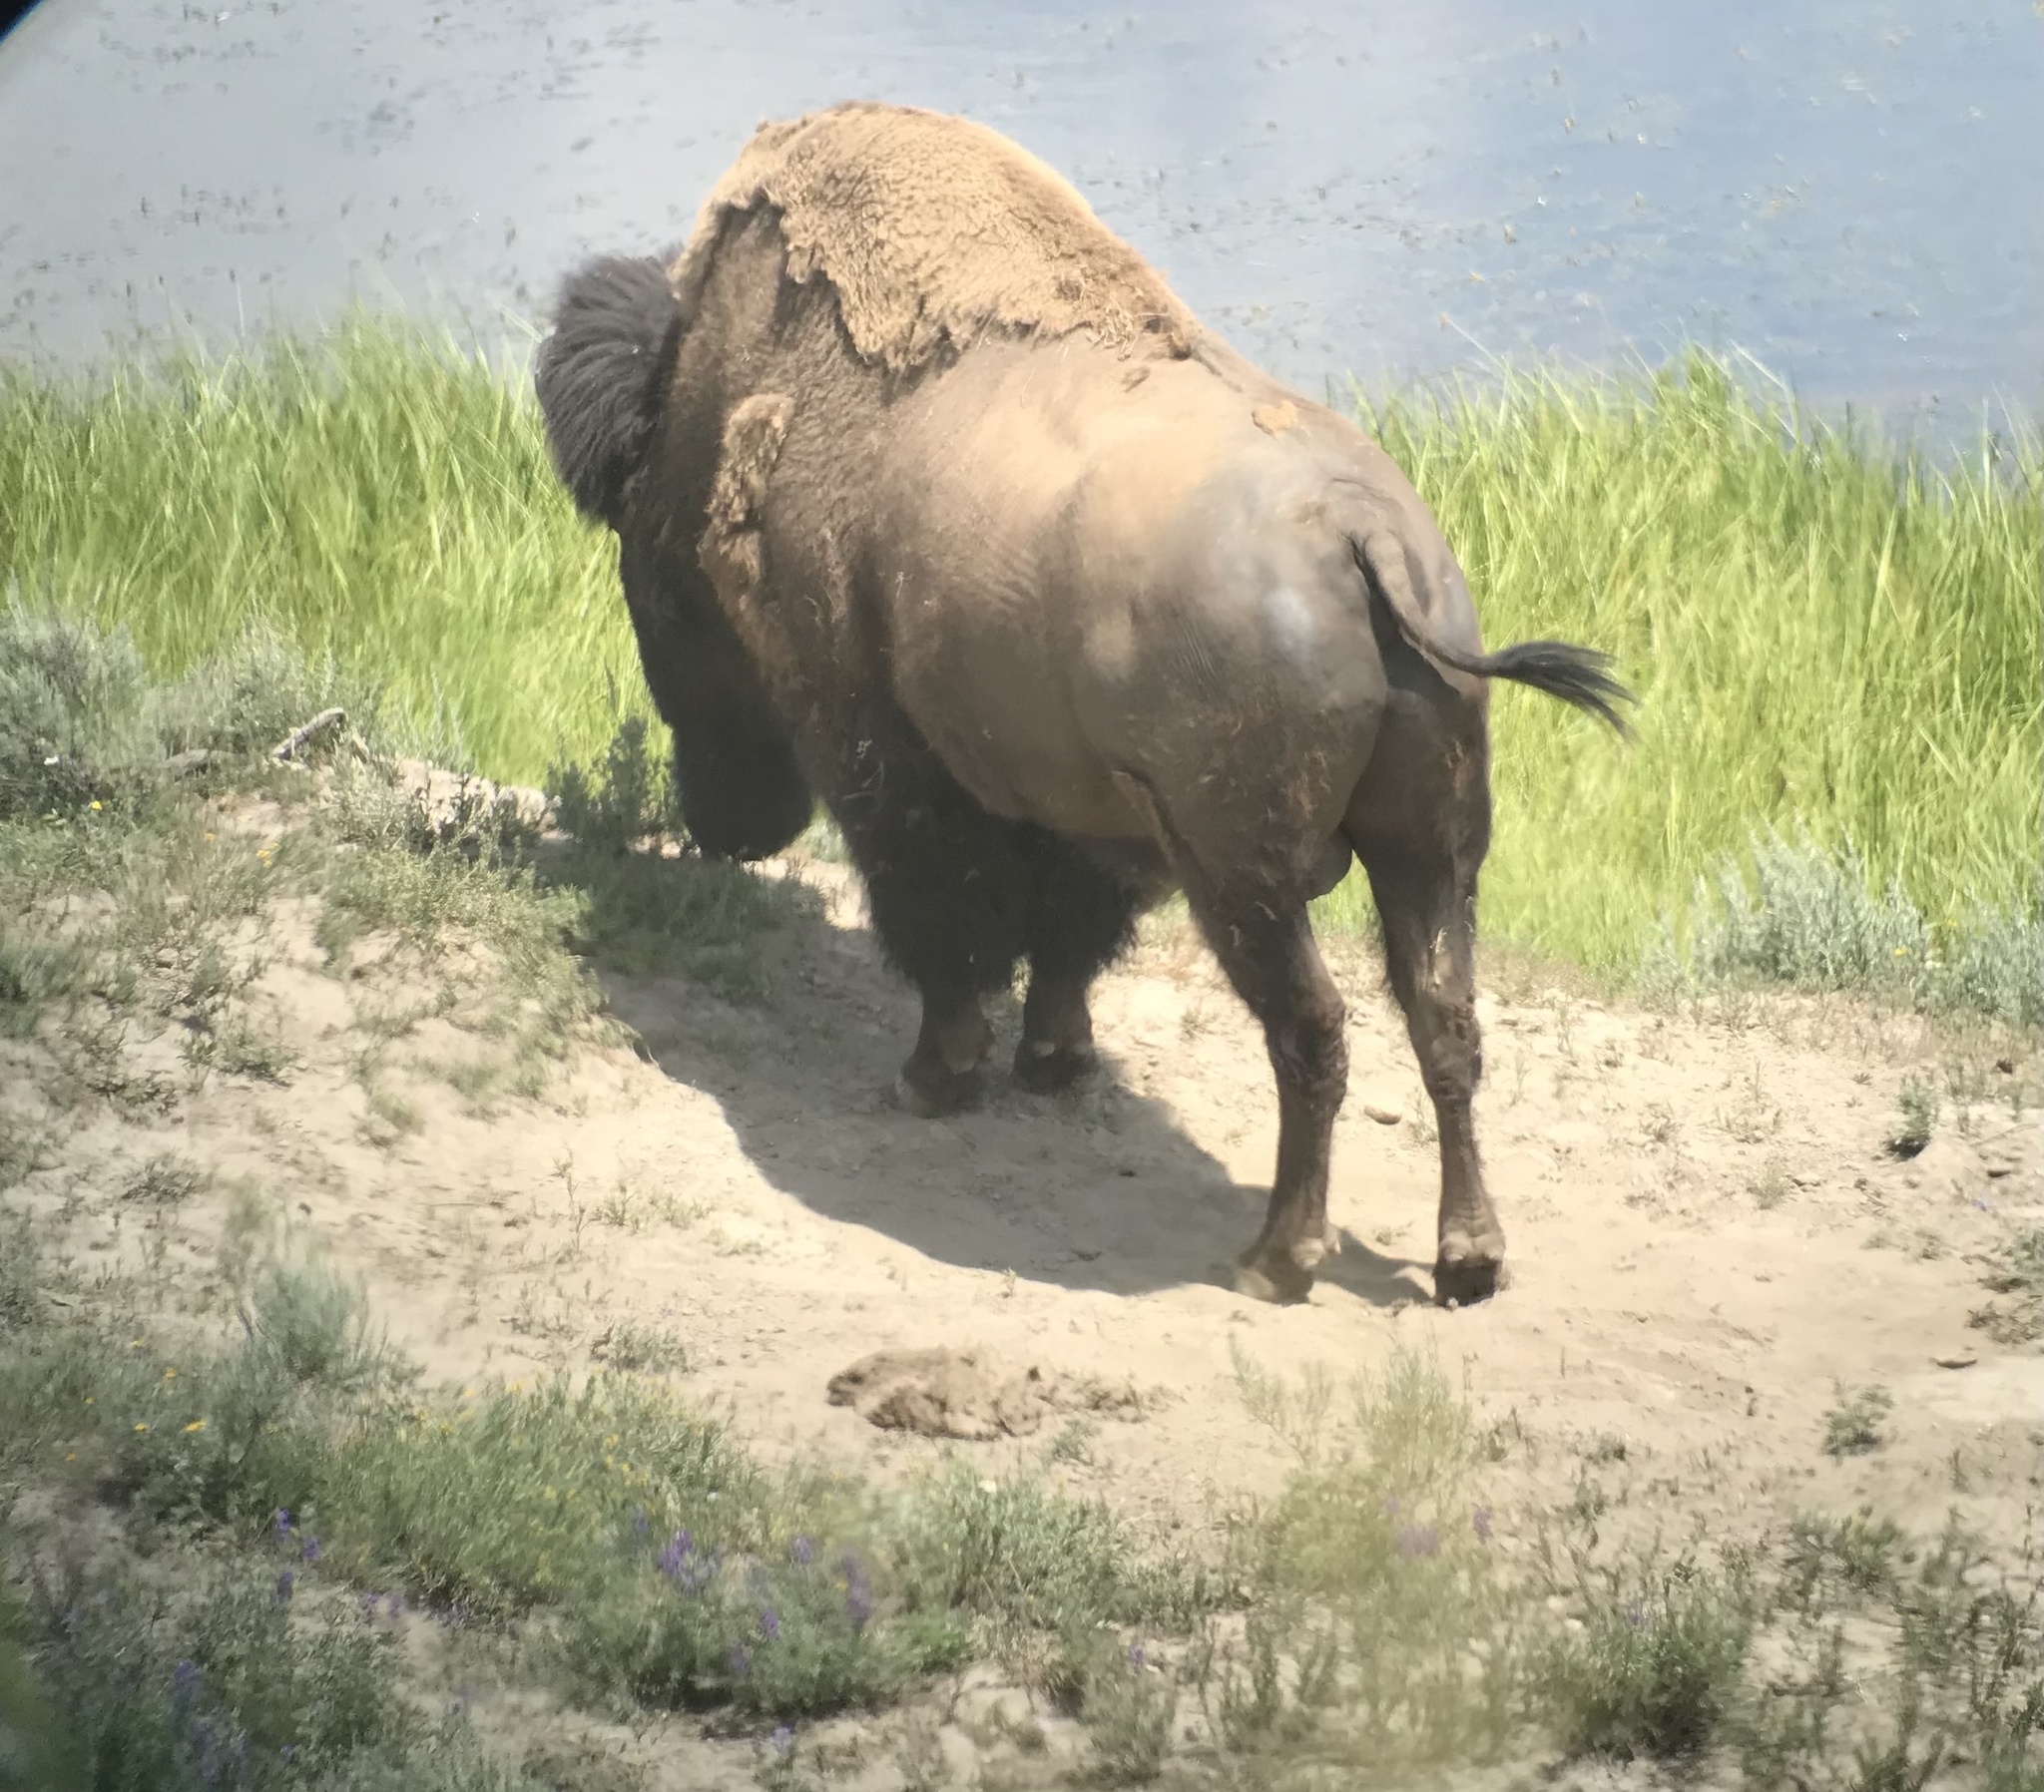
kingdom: Animalia
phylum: Chordata
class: Mammalia
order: Artiodactyla
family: Bovidae
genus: Bison
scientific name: Bison bison
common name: American bison
